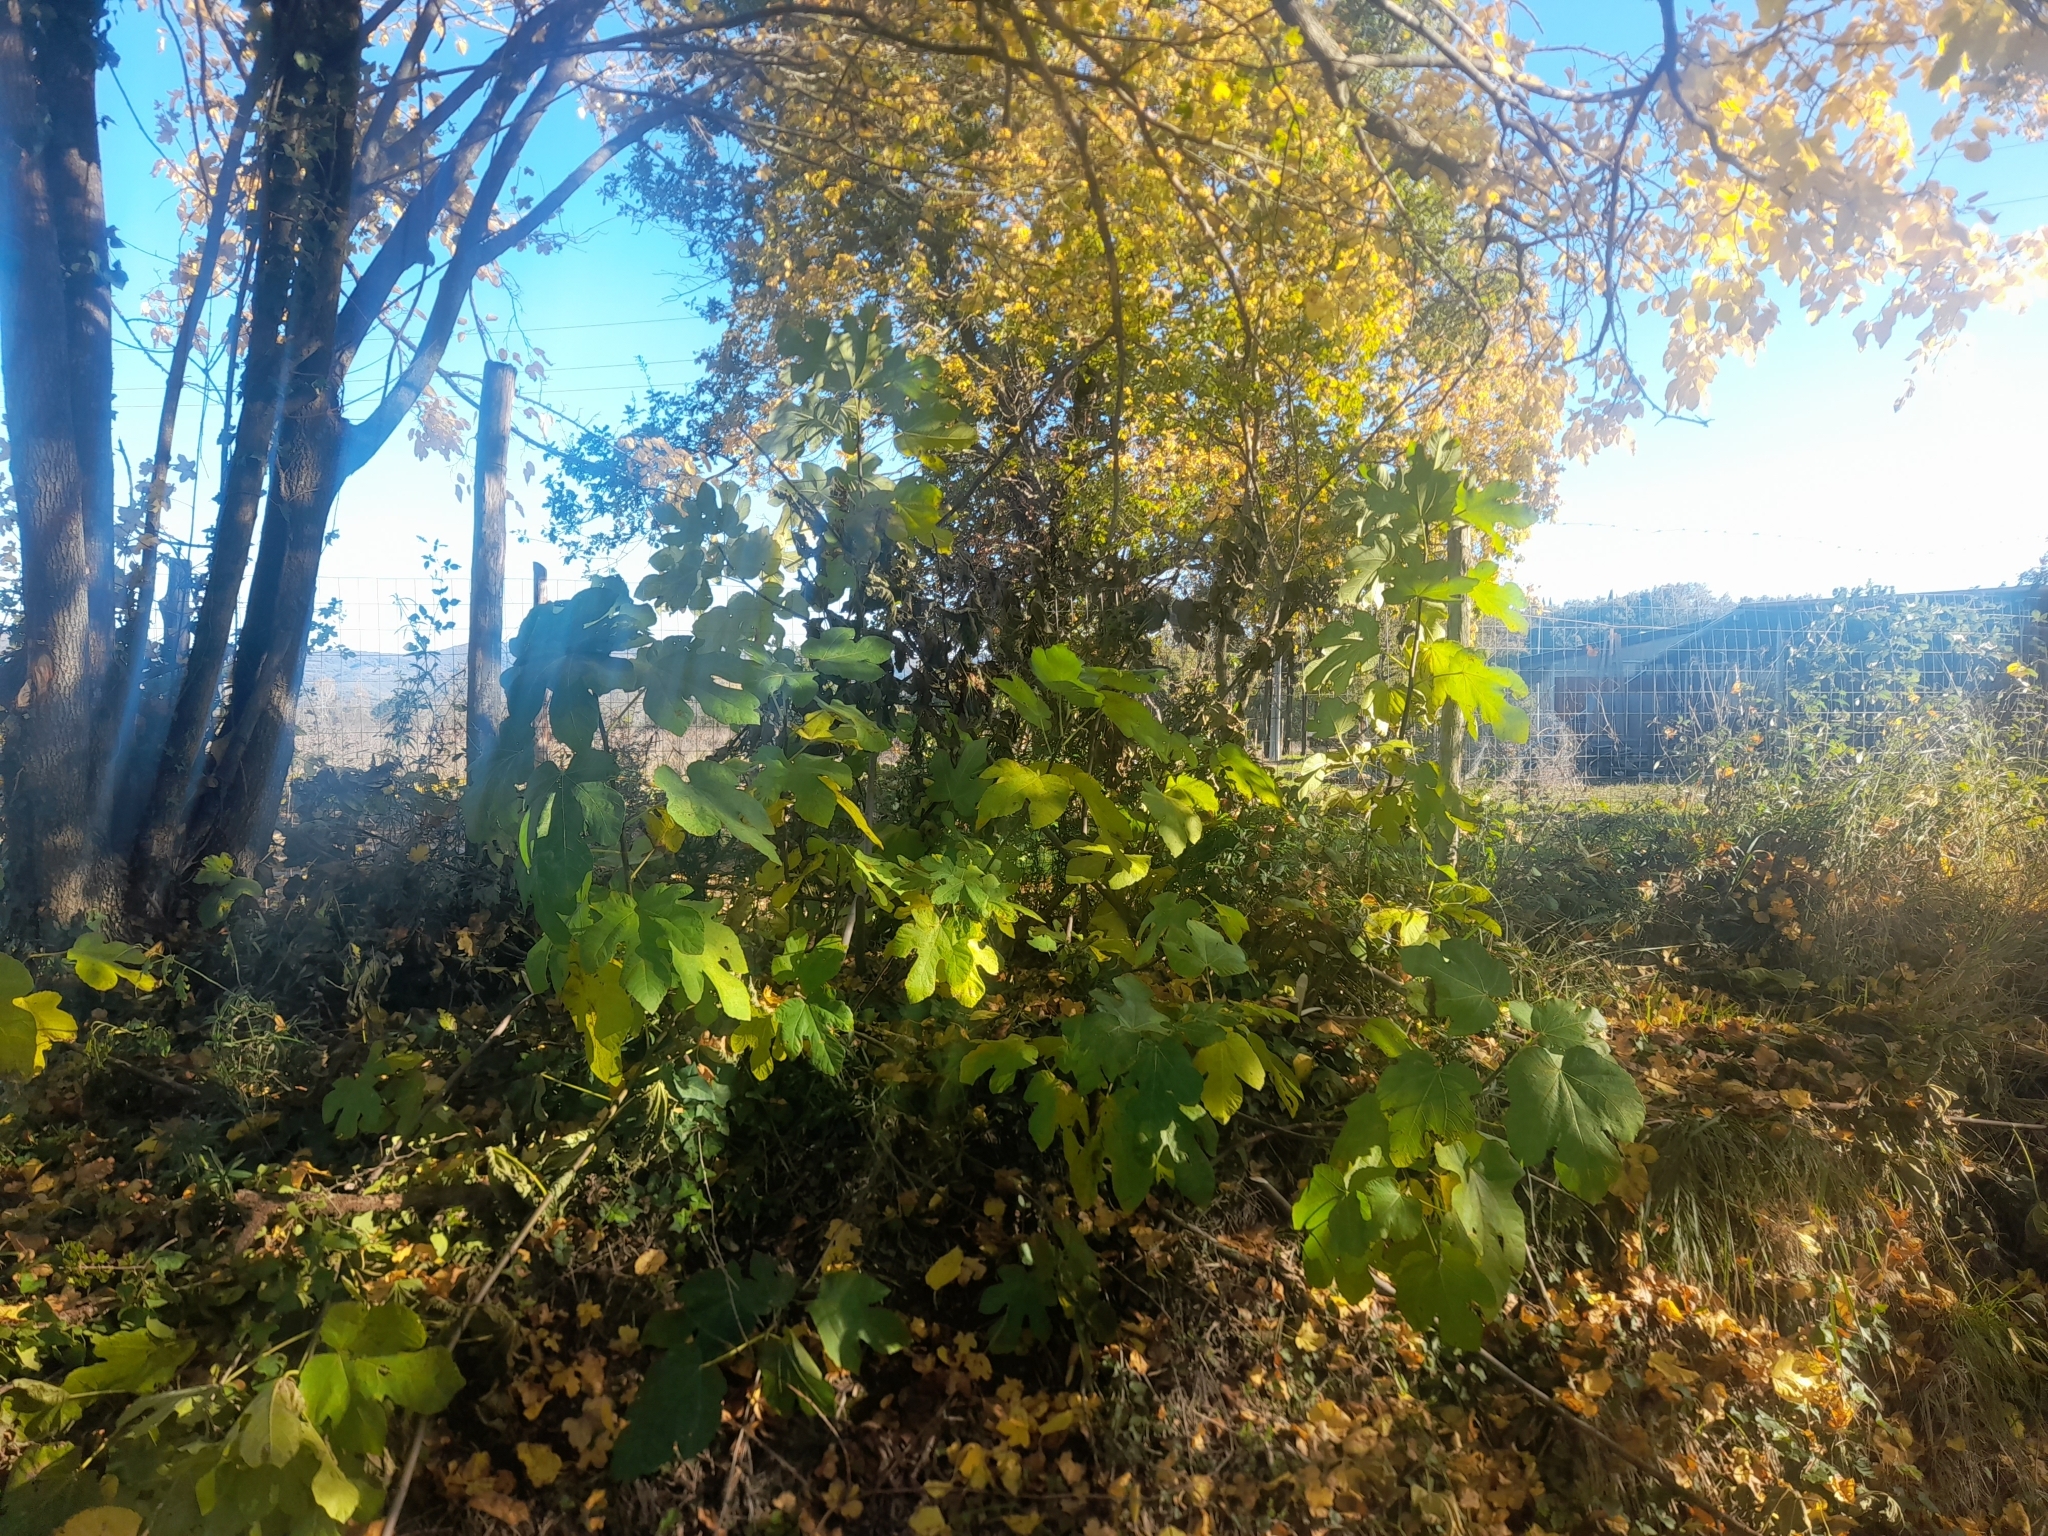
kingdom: Plantae
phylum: Tracheophyta
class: Magnoliopsida
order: Rosales
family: Moraceae
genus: Ficus
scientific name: Ficus carica
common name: Fig
